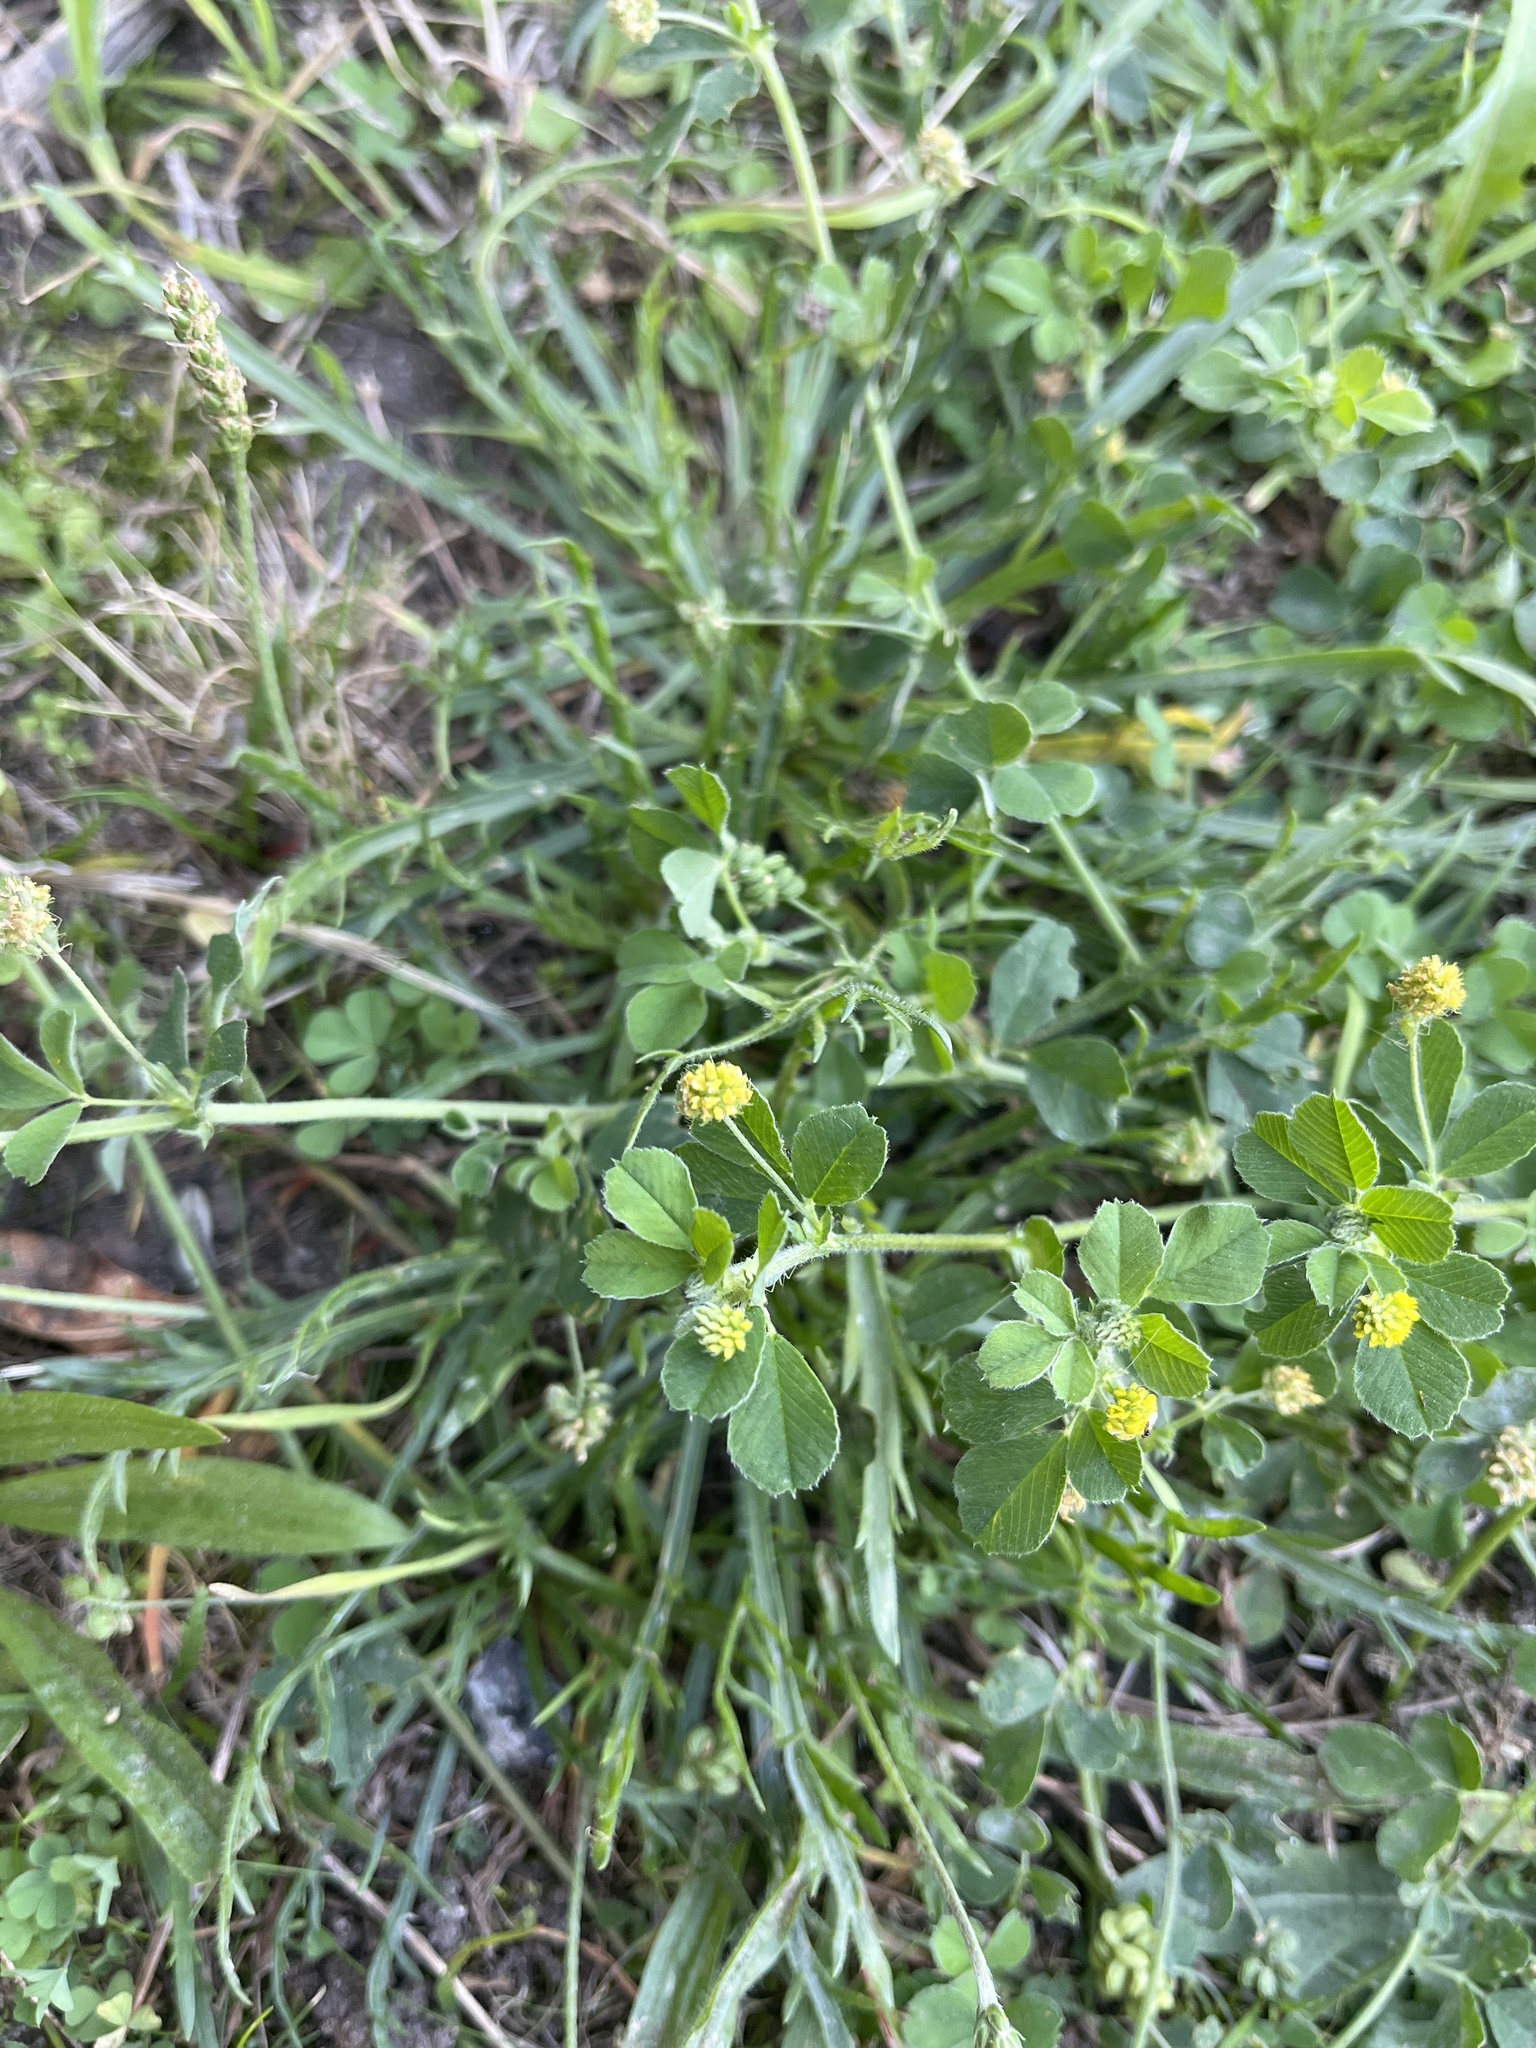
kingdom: Plantae
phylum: Tracheophyta
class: Magnoliopsida
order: Fabales
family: Fabaceae
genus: Medicago
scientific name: Medicago lupulina
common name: Black medick
